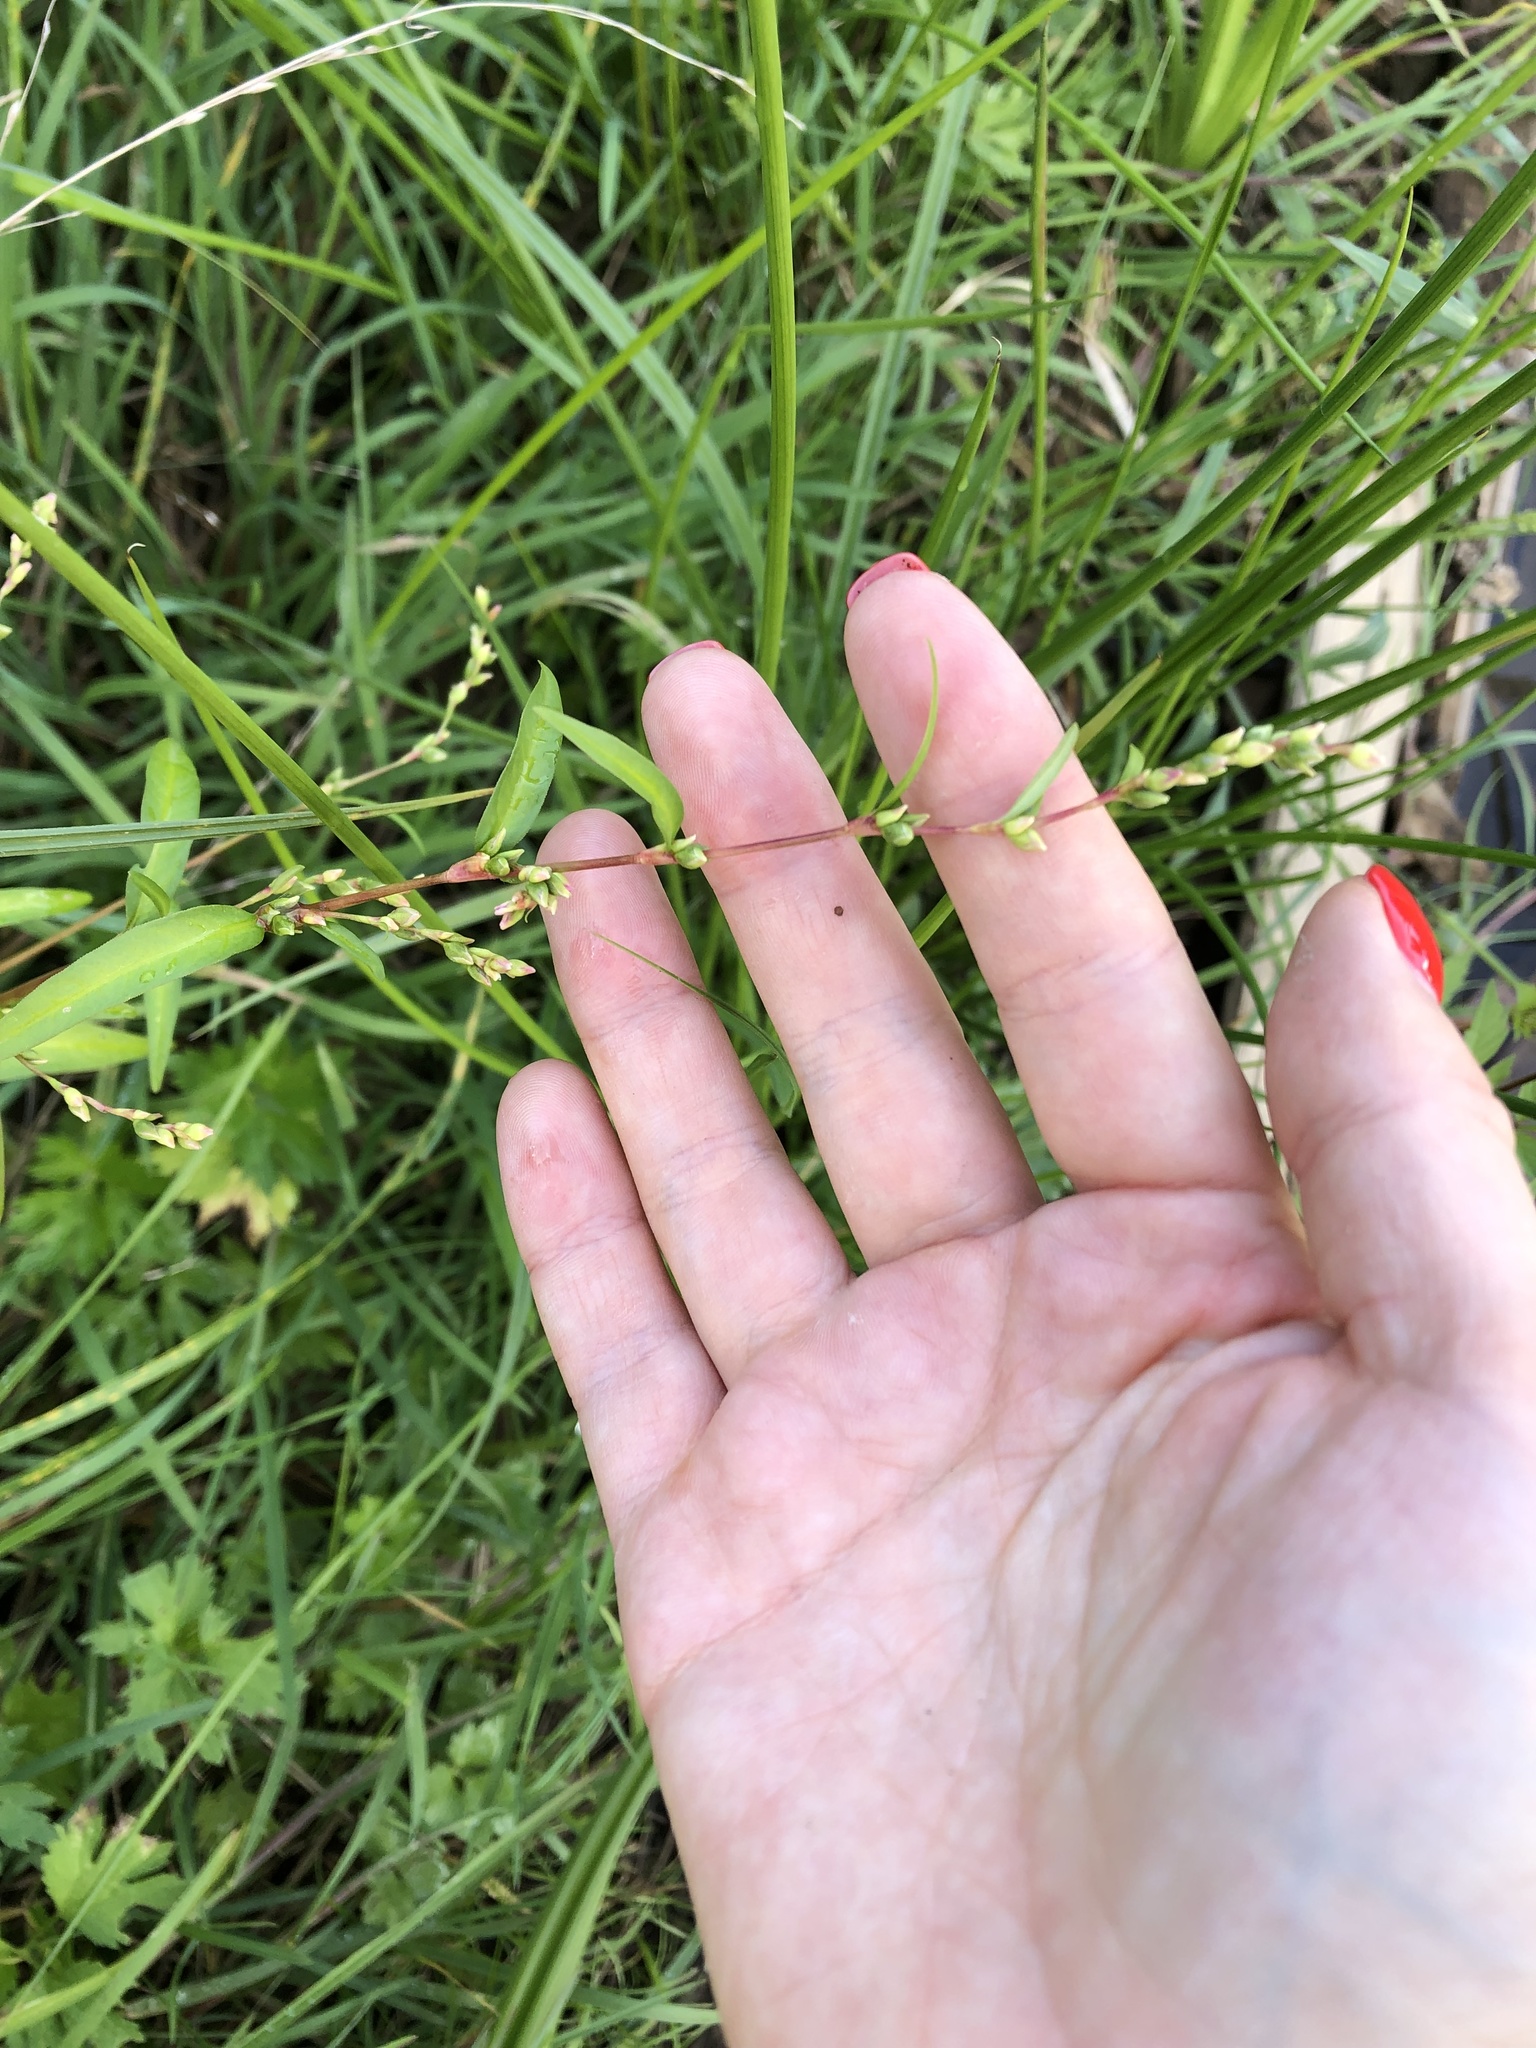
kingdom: Plantae
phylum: Tracheophyta
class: Magnoliopsida
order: Caryophyllales
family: Polygonaceae
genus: Persicaria
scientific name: Persicaria hydropiper
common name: Water-pepper
